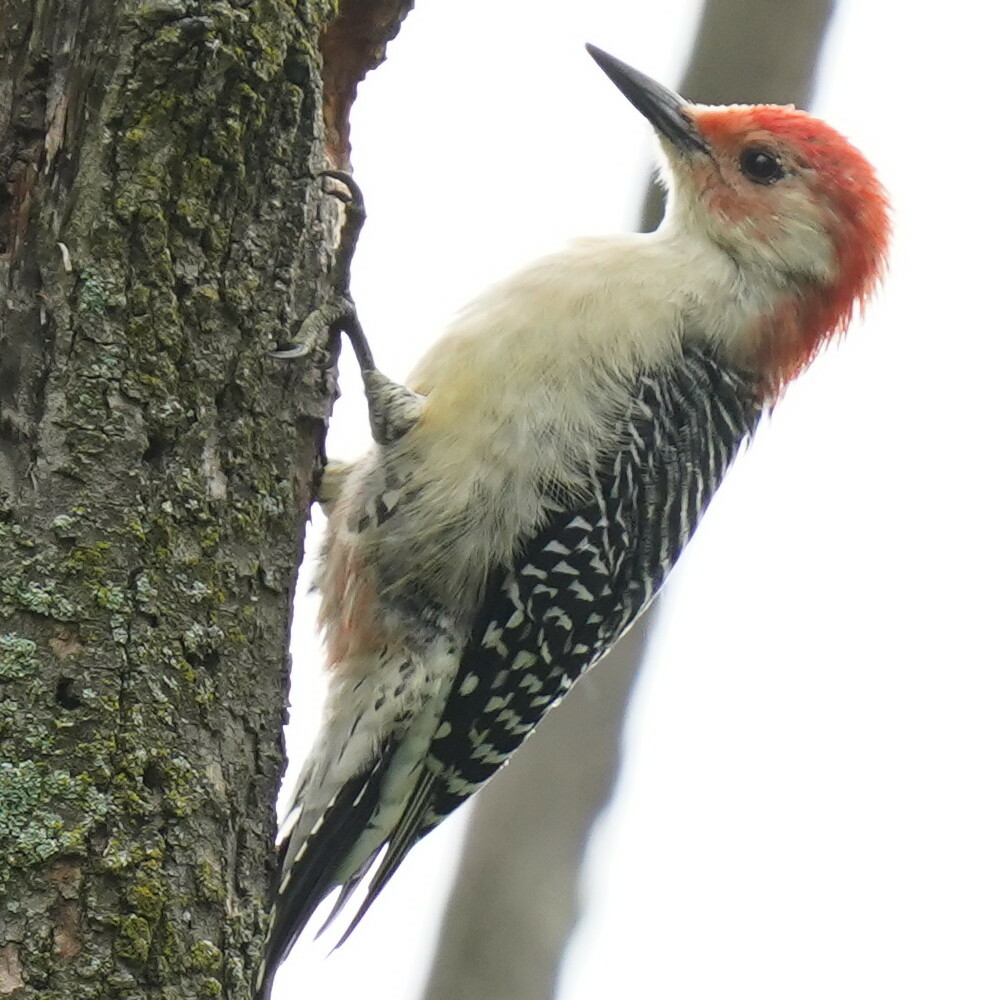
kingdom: Animalia
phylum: Chordata
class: Aves
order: Piciformes
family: Picidae
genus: Melanerpes
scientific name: Melanerpes carolinus
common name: Red-bellied woodpecker
